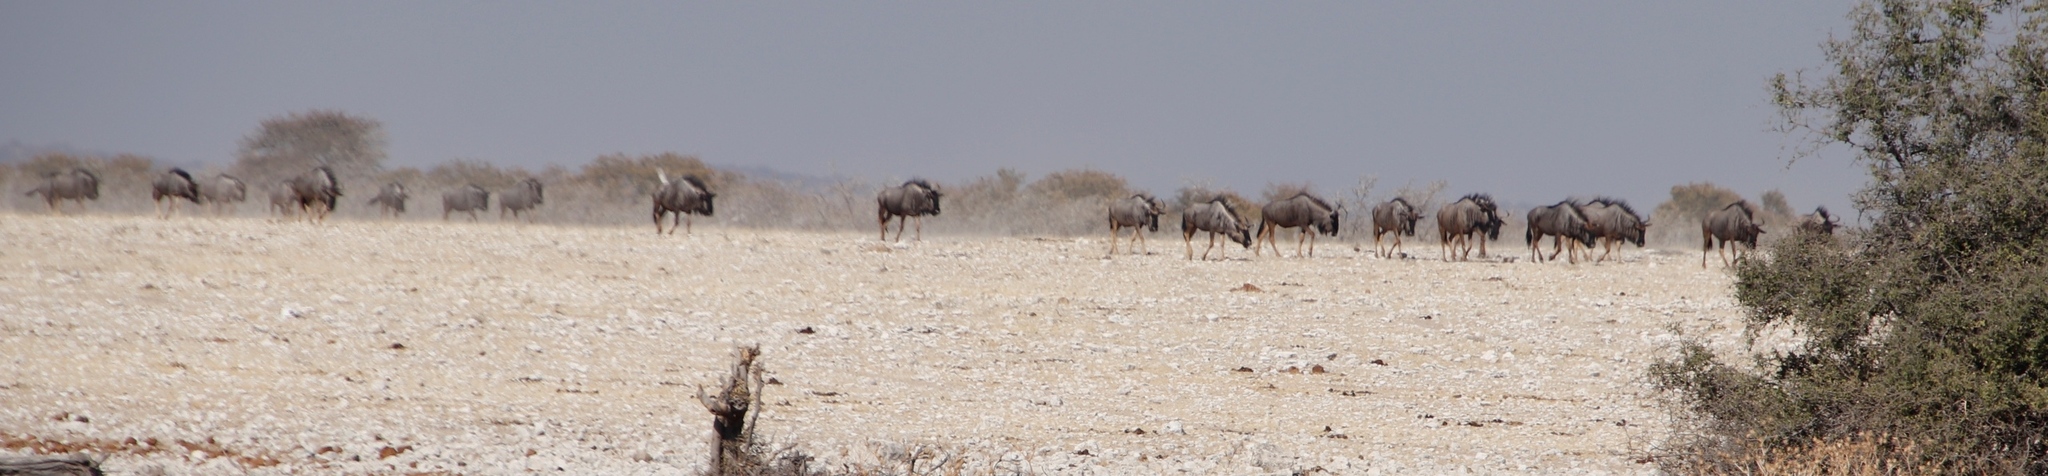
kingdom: Animalia
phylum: Chordata
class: Mammalia
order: Artiodactyla
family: Bovidae
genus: Connochaetes
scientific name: Connochaetes taurinus
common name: Blue wildebeest
